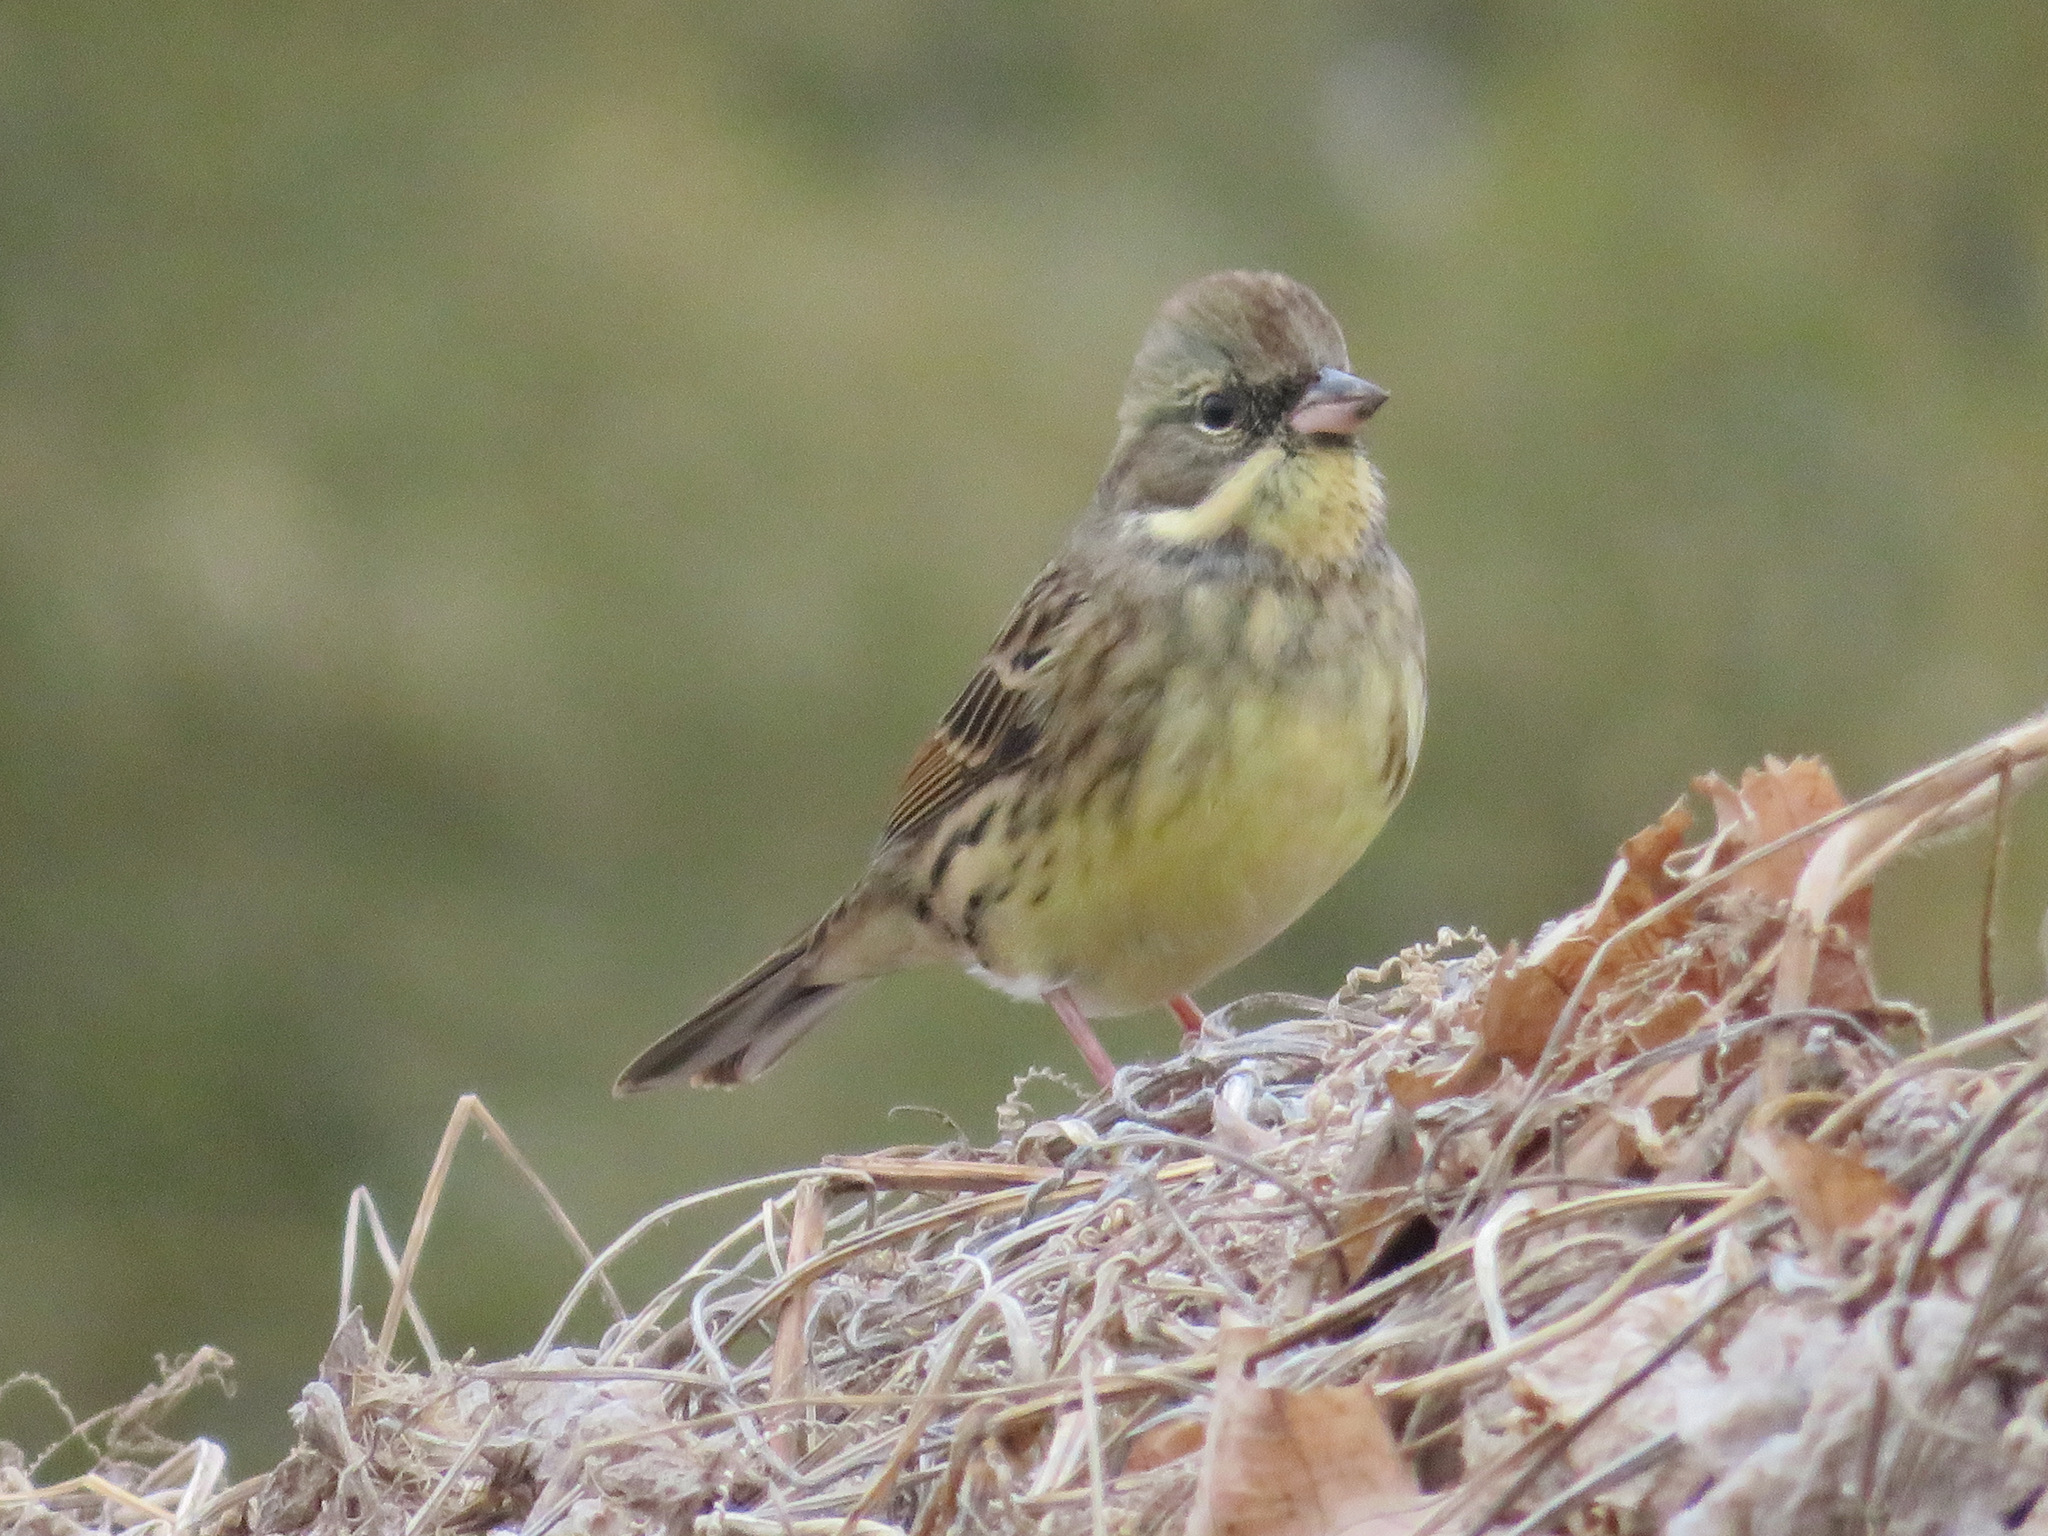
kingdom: Animalia
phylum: Chordata
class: Aves
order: Passeriformes
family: Emberizidae
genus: Emberiza
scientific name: Emberiza personata
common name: Masked bunting
